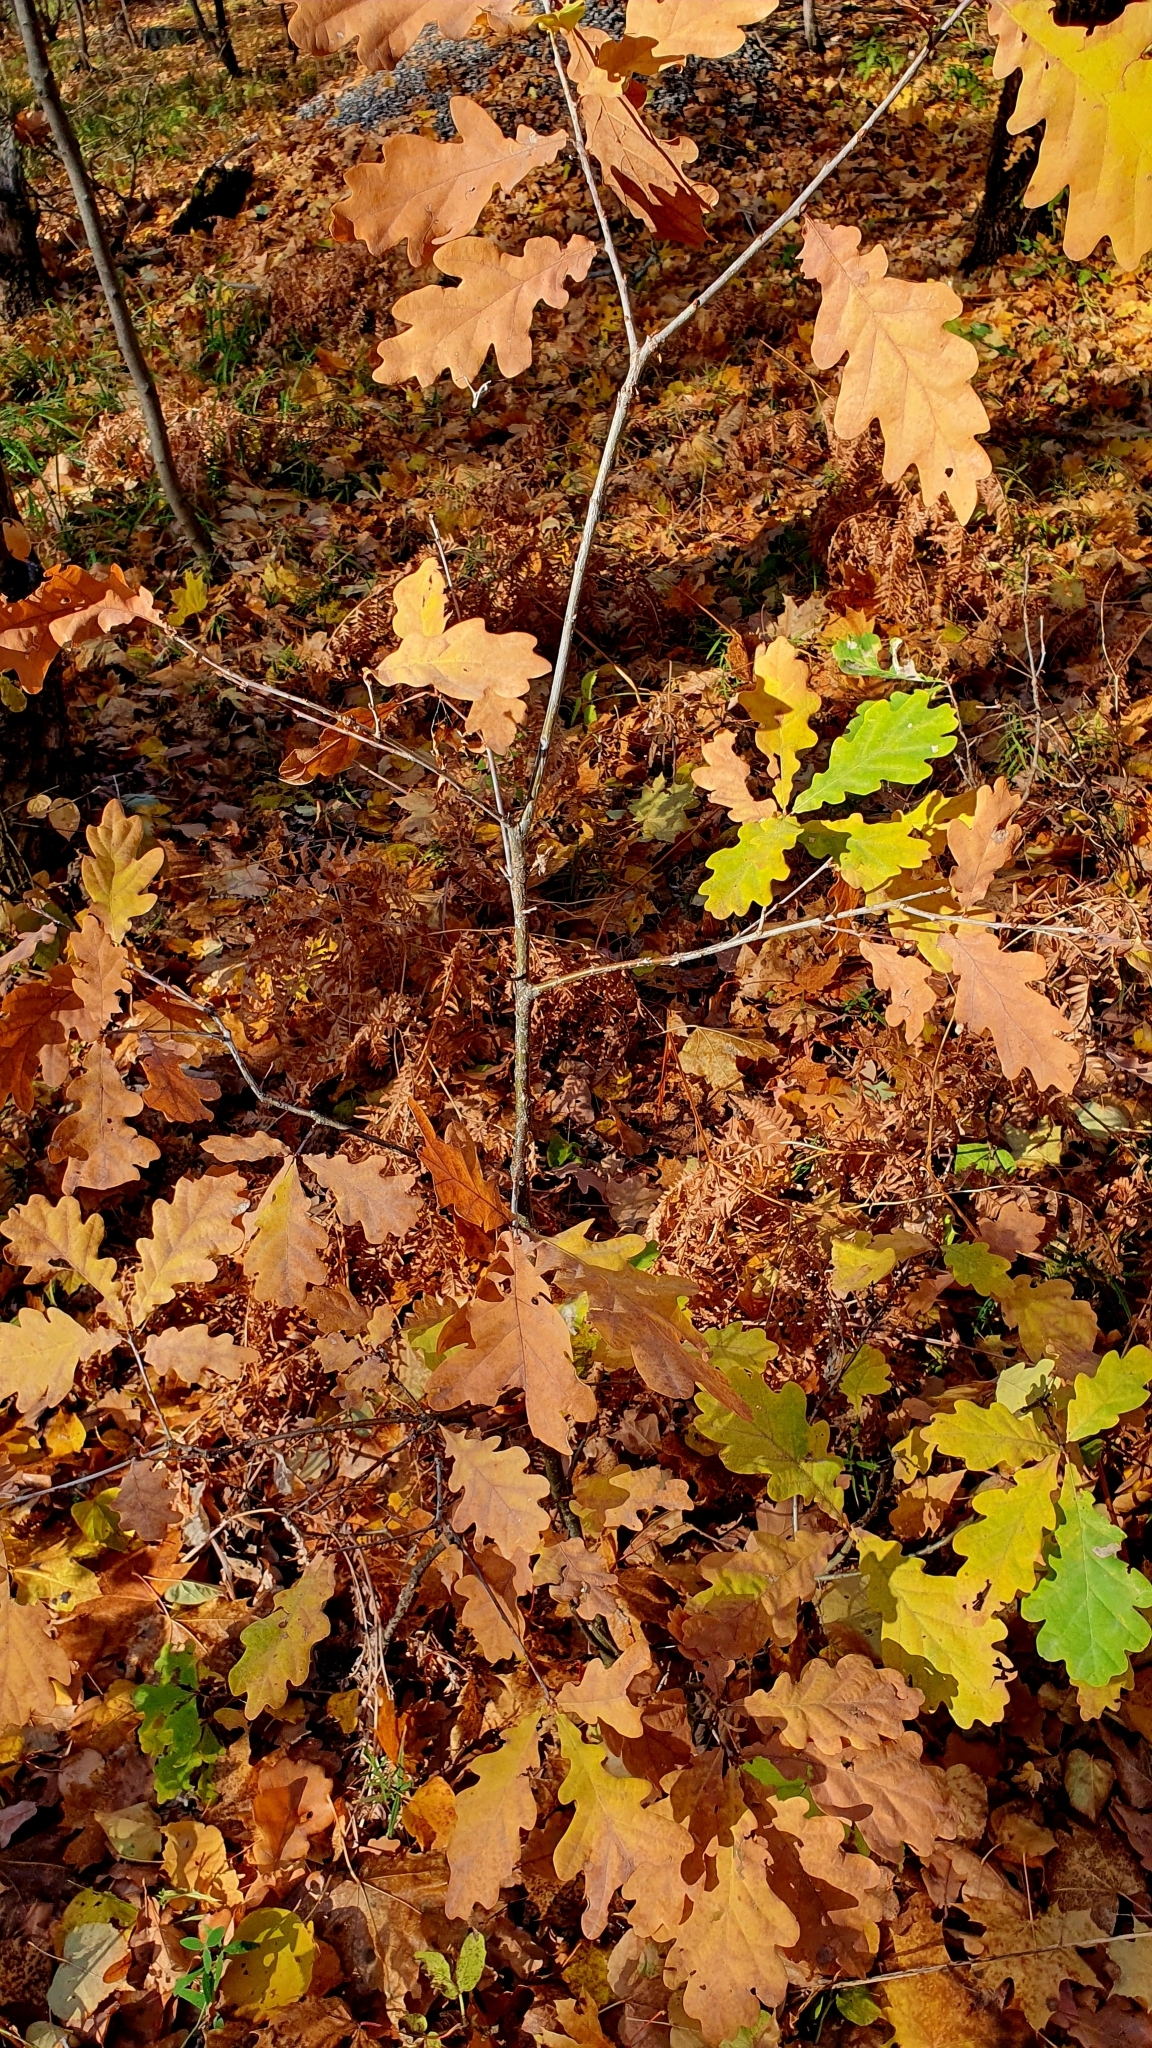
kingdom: Plantae
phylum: Tracheophyta
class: Magnoliopsida
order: Fagales
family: Fagaceae
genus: Quercus
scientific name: Quercus robur
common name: Pedunculate oak
